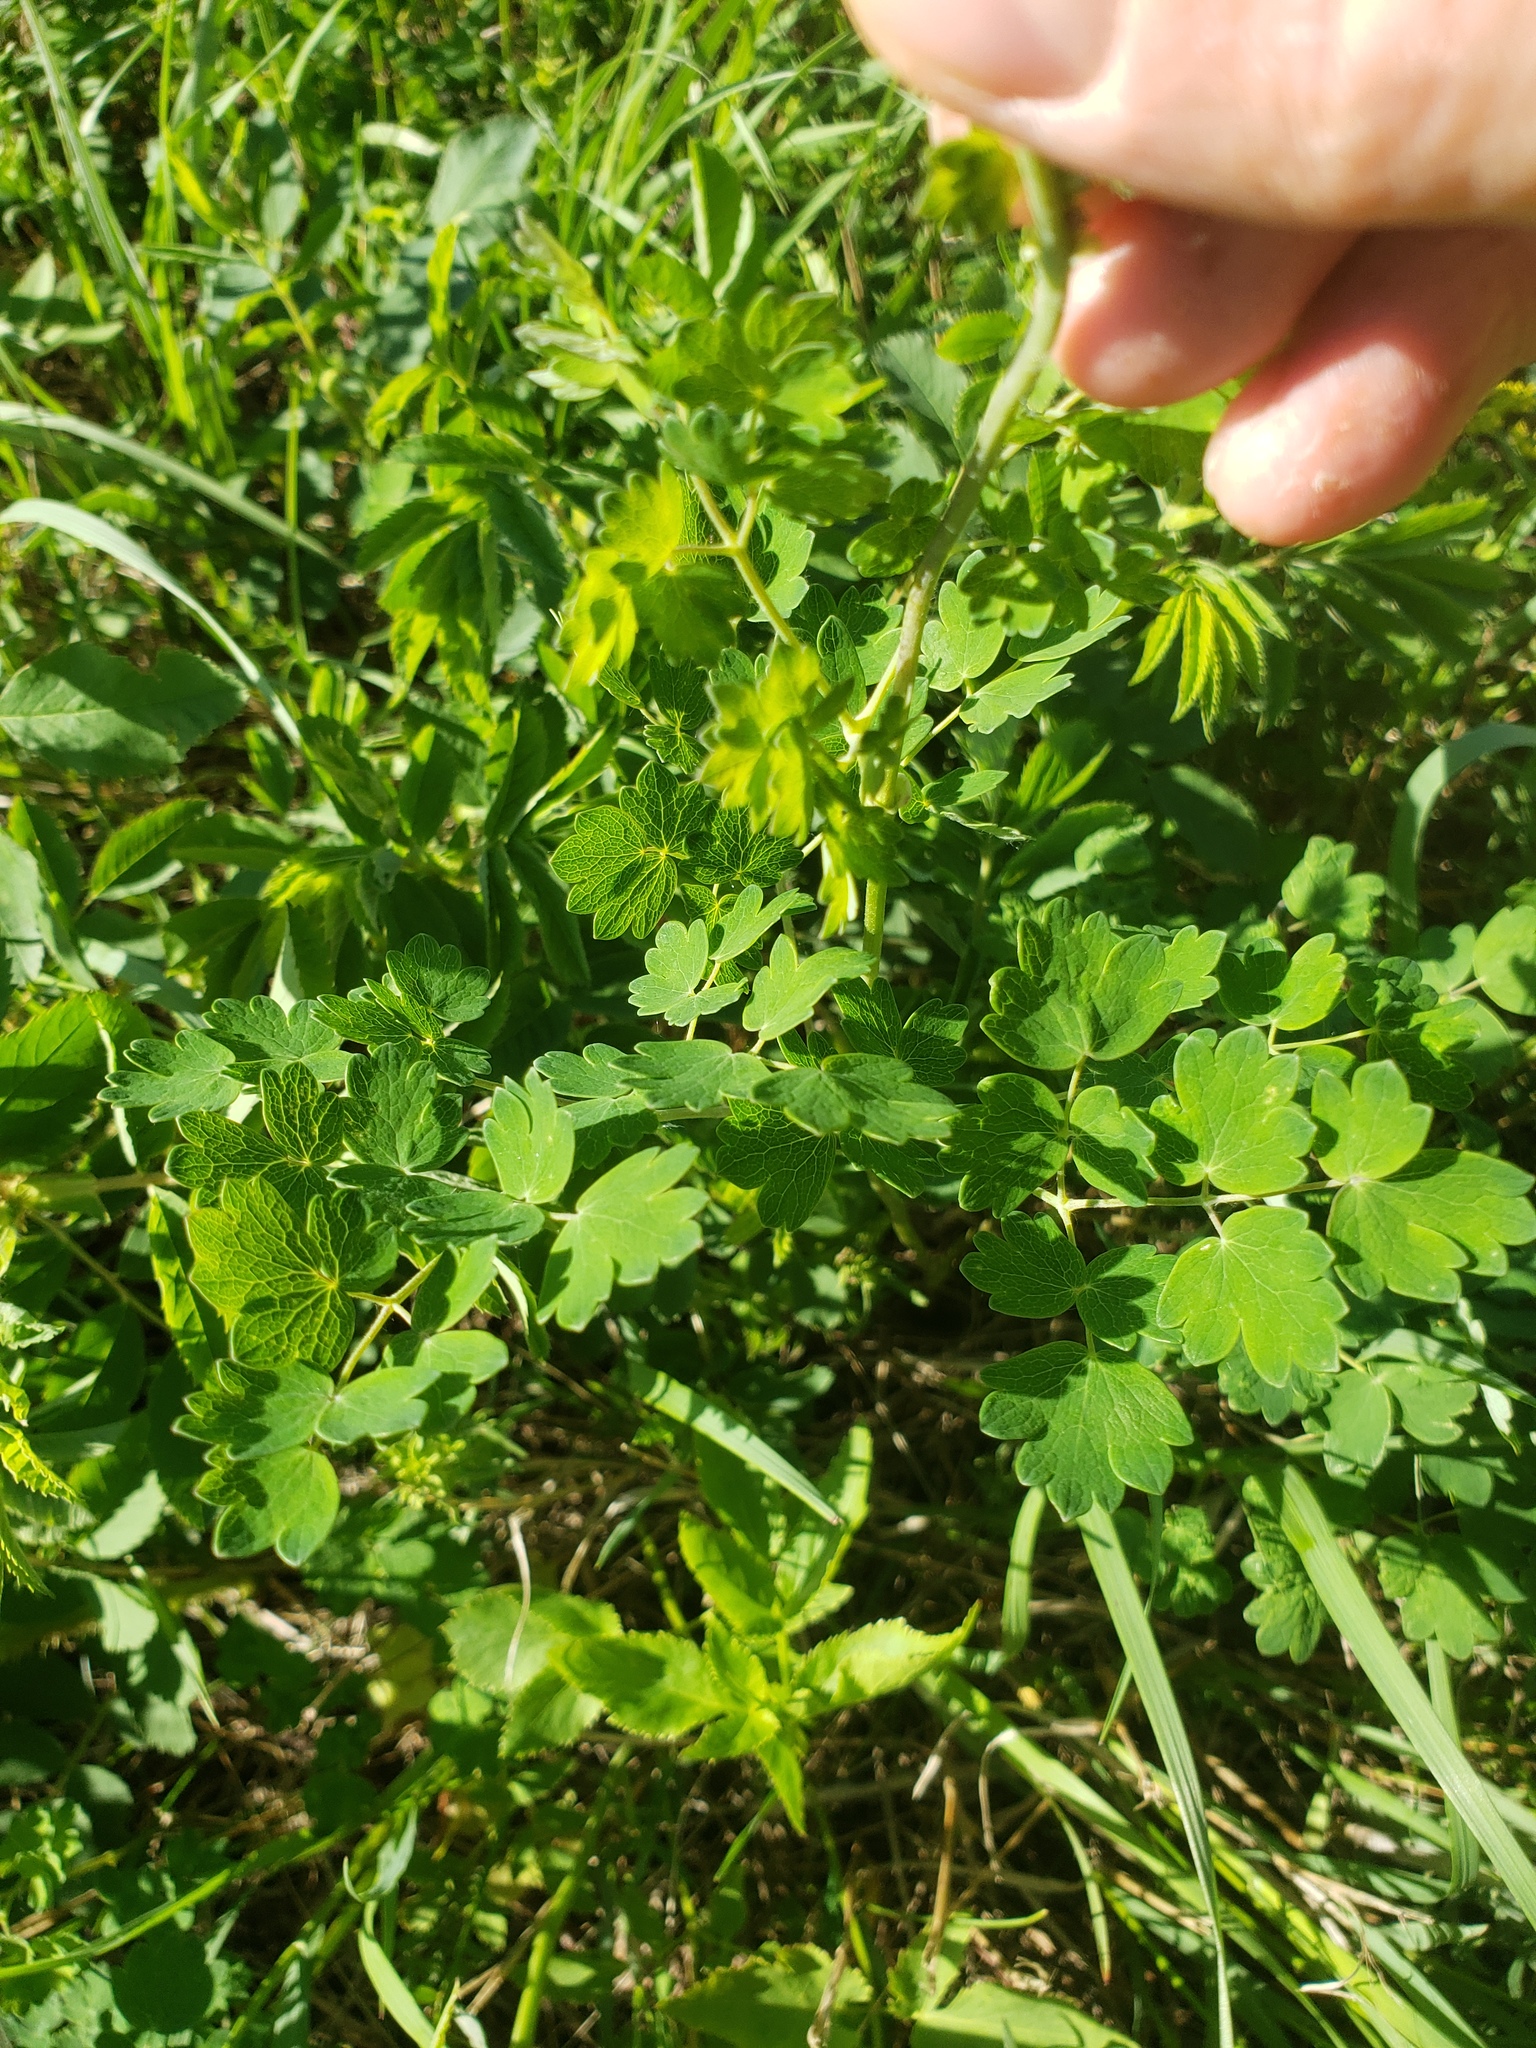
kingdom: Plantae
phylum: Tracheophyta
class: Magnoliopsida
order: Ranunculales
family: Ranunculaceae
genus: Thalictrum
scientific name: Thalictrum venulosum
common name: Early meadow-rue
